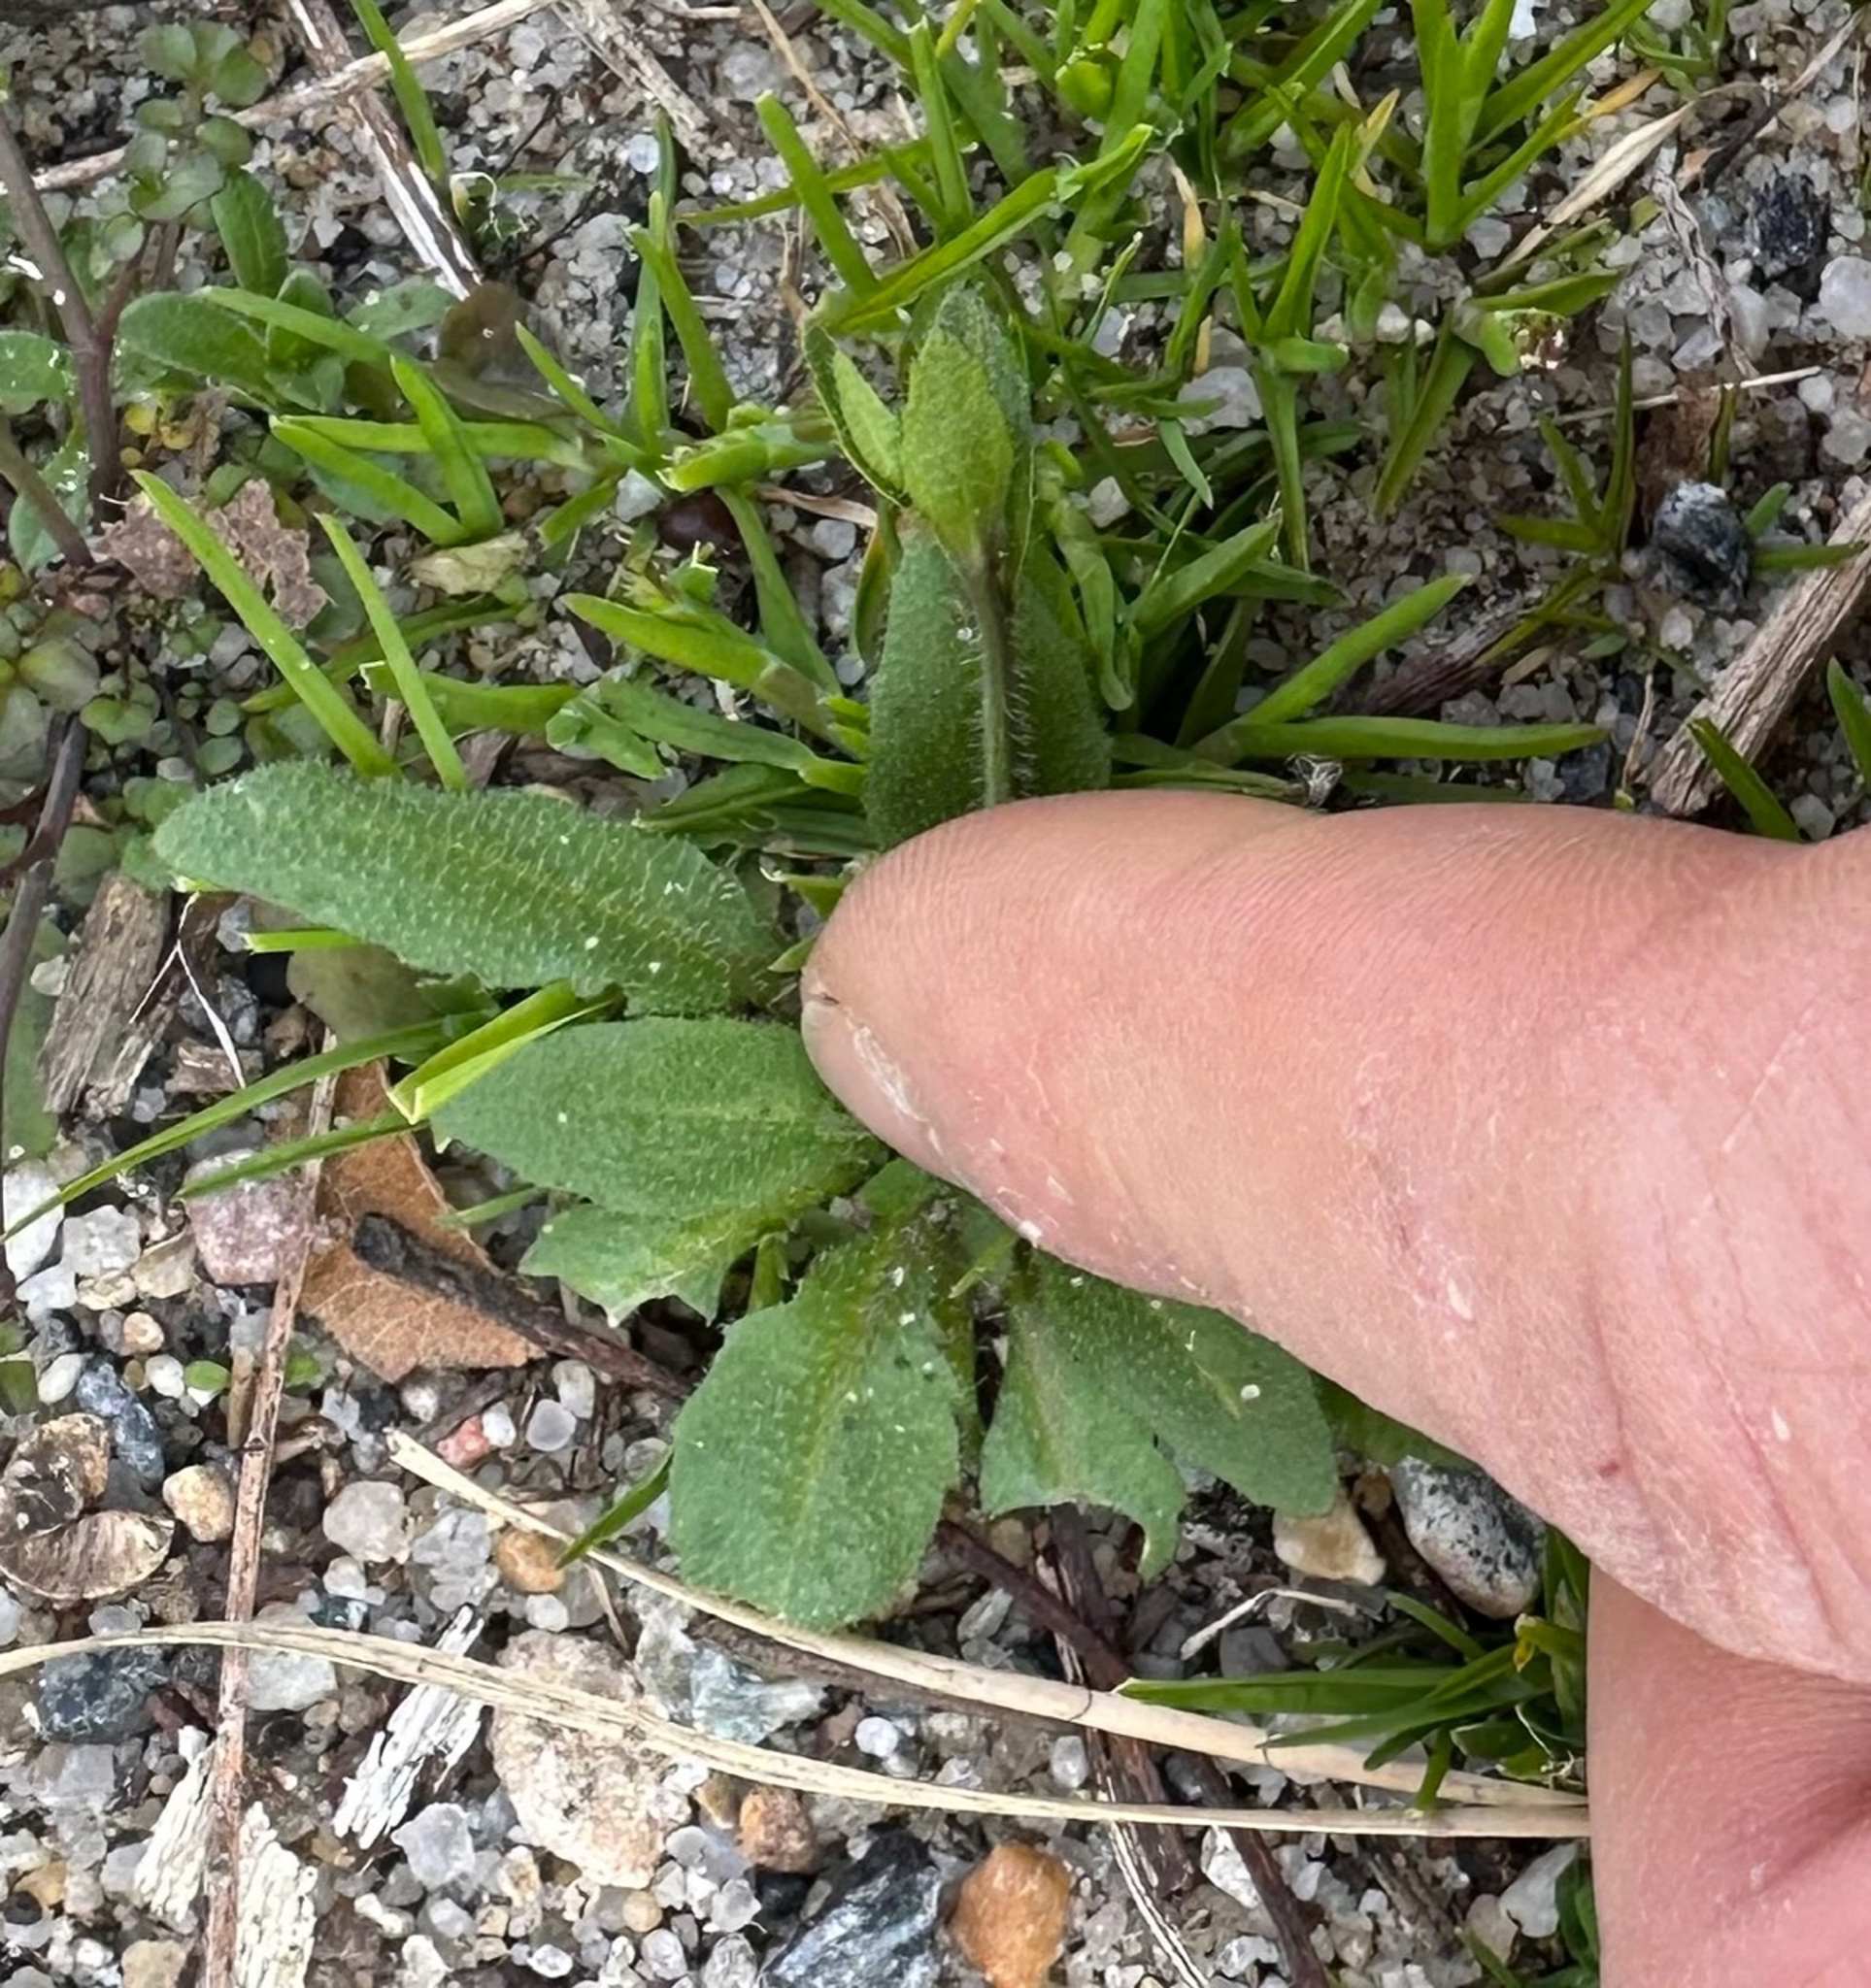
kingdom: Plantae
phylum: Tracheophyta
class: Magnoliopsida
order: Brassicales
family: Brassicaceae
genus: Arabidopsis
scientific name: Arabidopsis thaliana
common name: Thale cress
